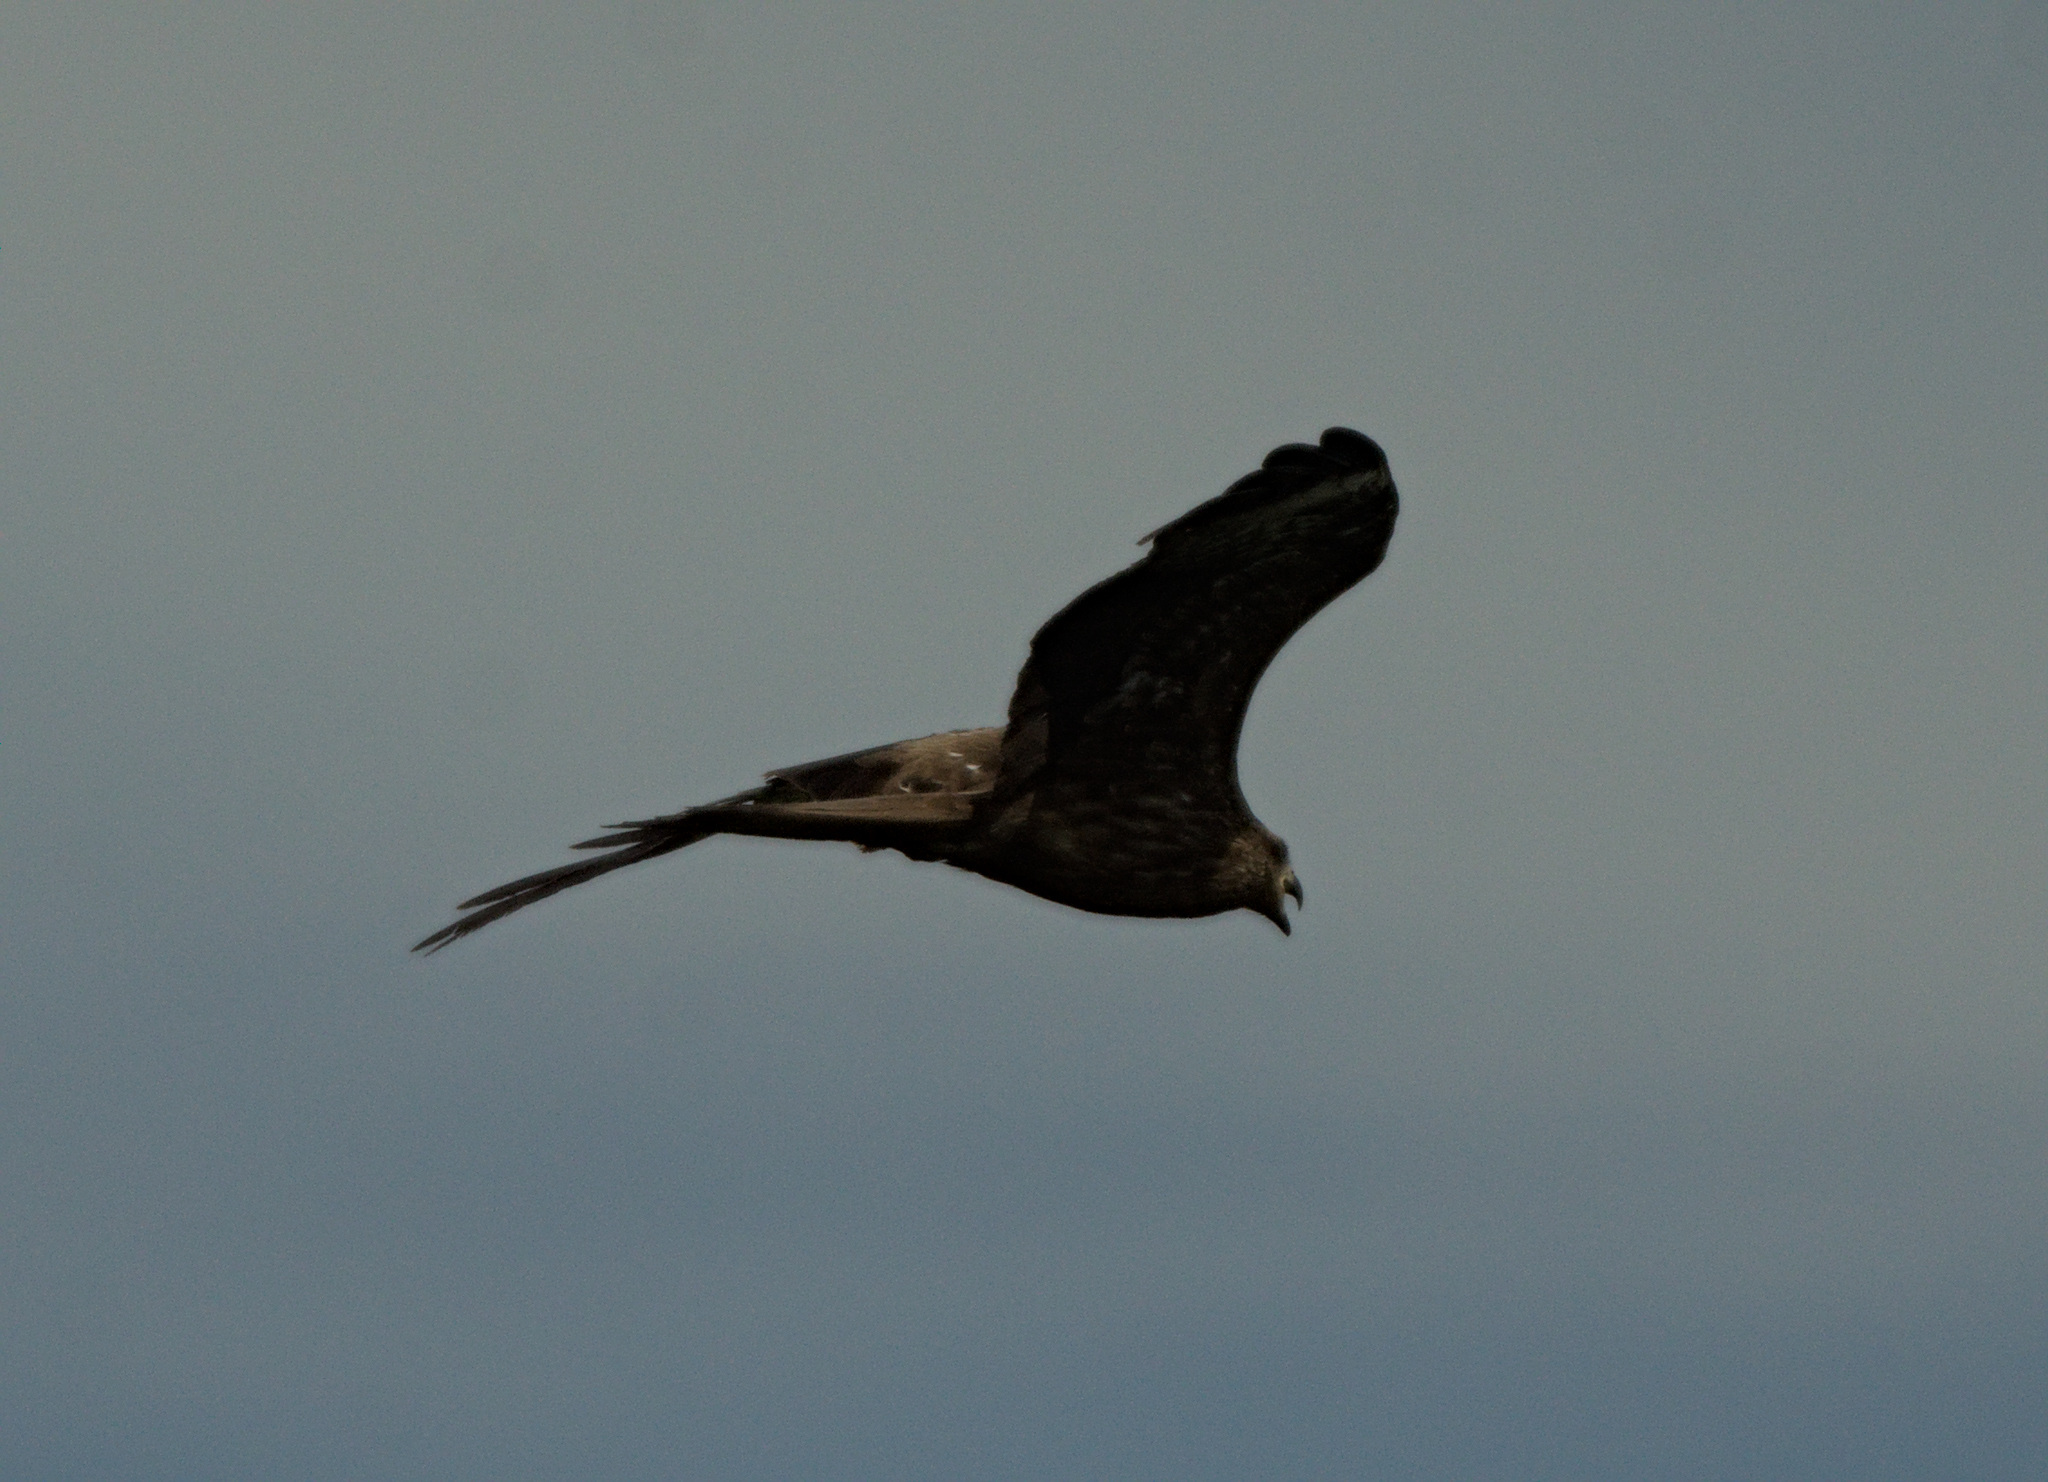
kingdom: Animalia
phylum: Chordata
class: Aves
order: Accipitriformes
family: Accipitridae
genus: Milvus
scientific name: Milvus migrans
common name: Black kite
